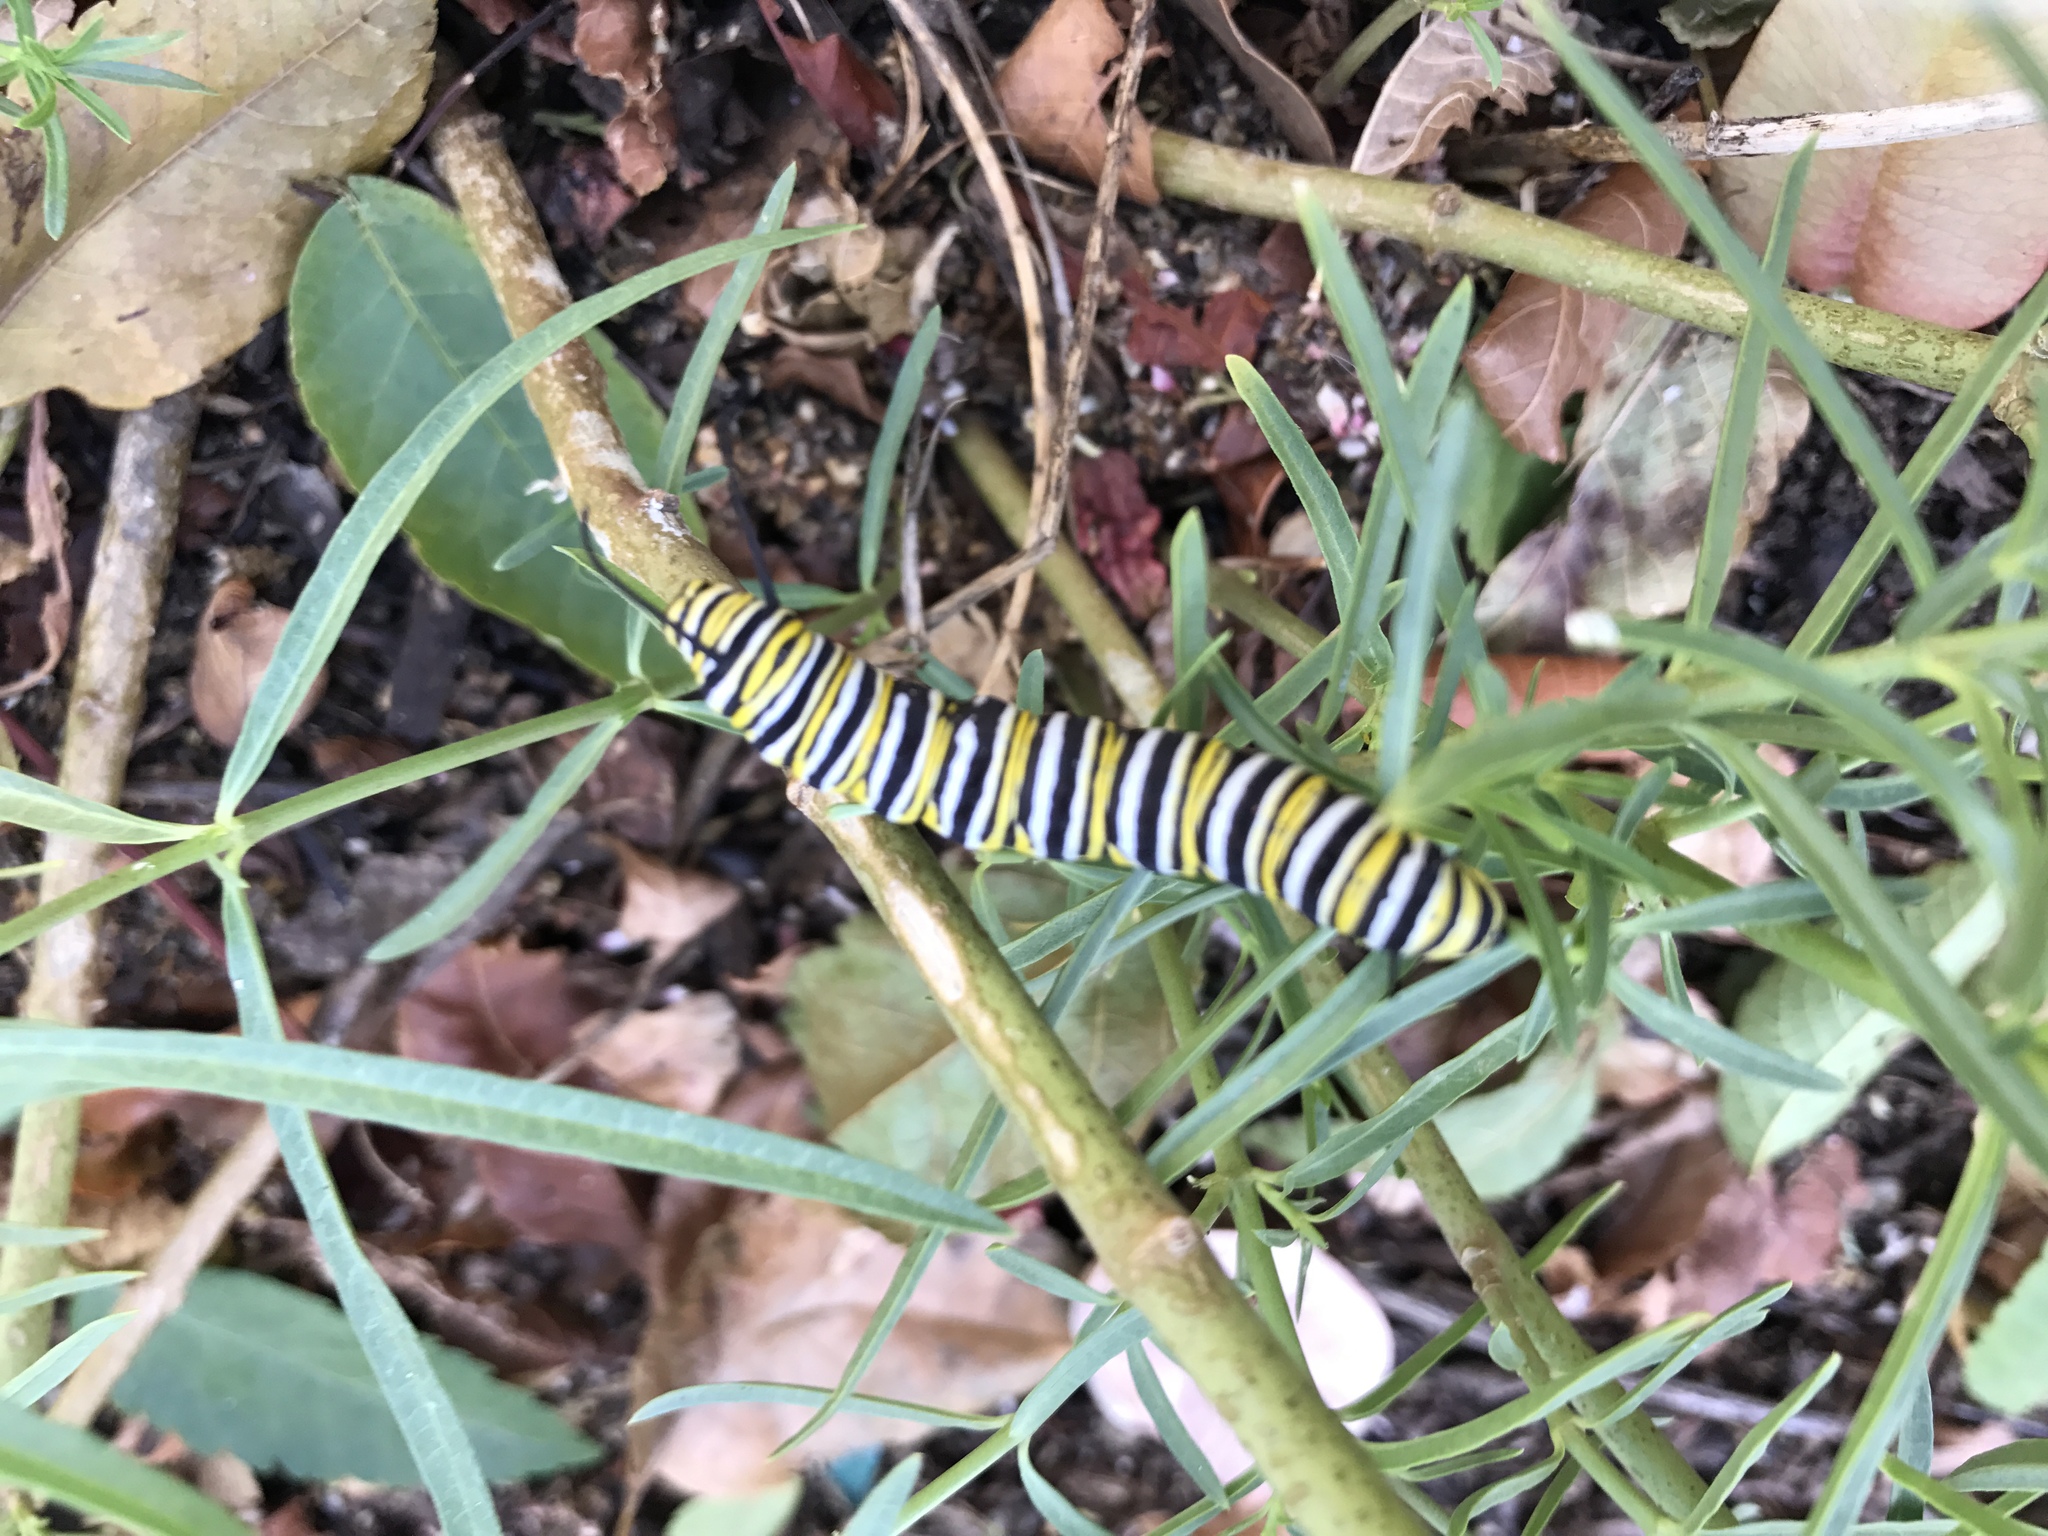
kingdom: Animalia
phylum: Arthropoda
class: Insecta
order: Lepidoptera
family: Nymphalidae
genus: Danaus
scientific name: Danaus plexippus
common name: Monarch
